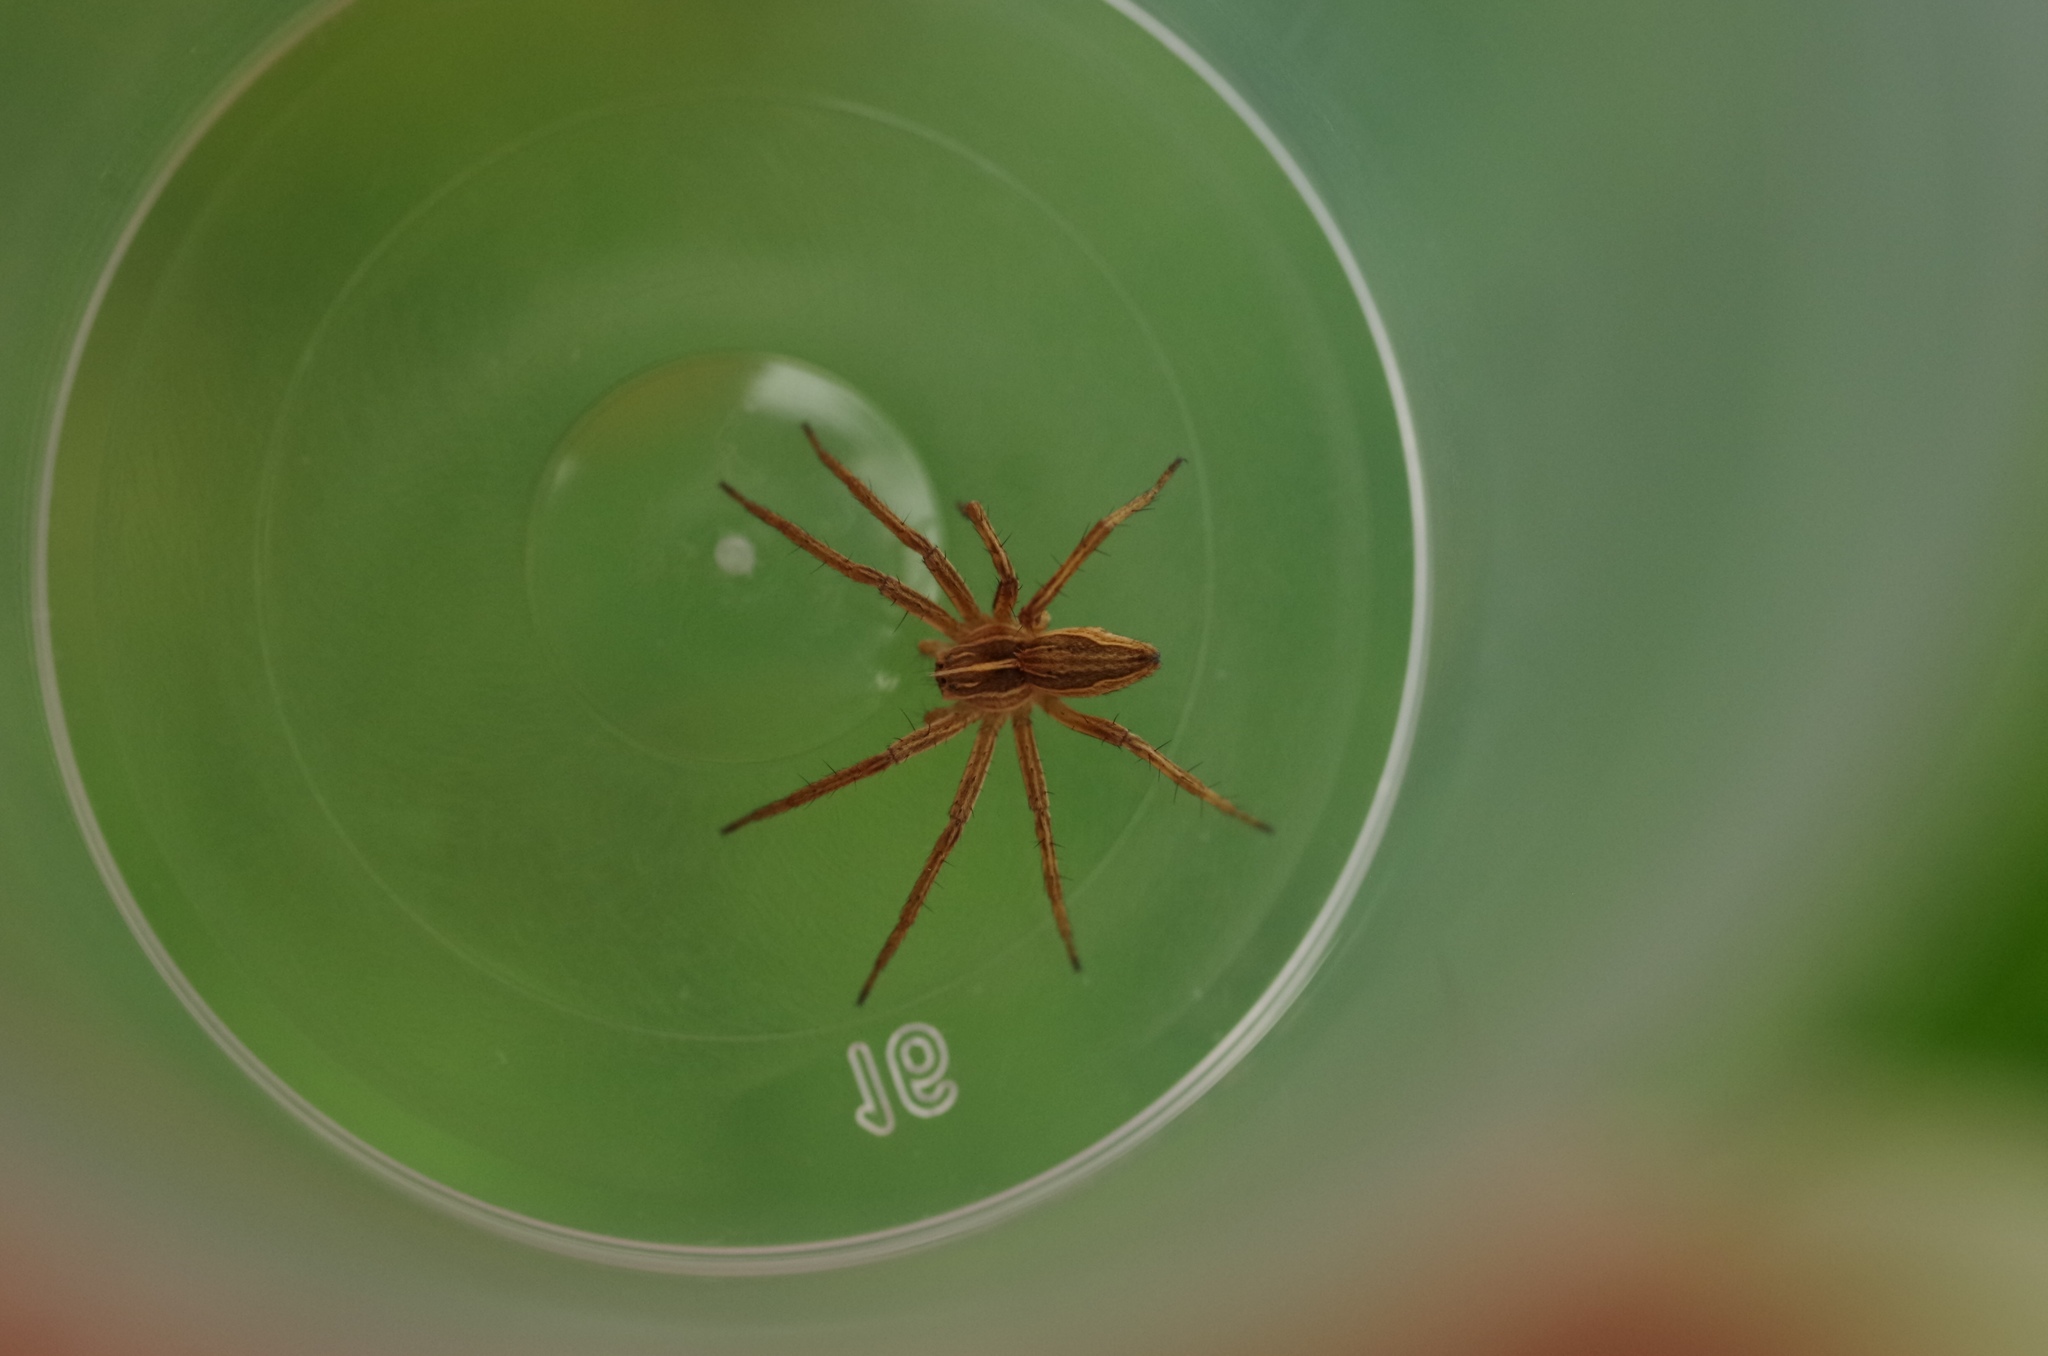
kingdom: Animalia
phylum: Arthropoda
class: Arachnida
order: Araneae
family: Pisauridae
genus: Pisaura
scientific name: Pisaura mirabilis
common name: Tent spider
